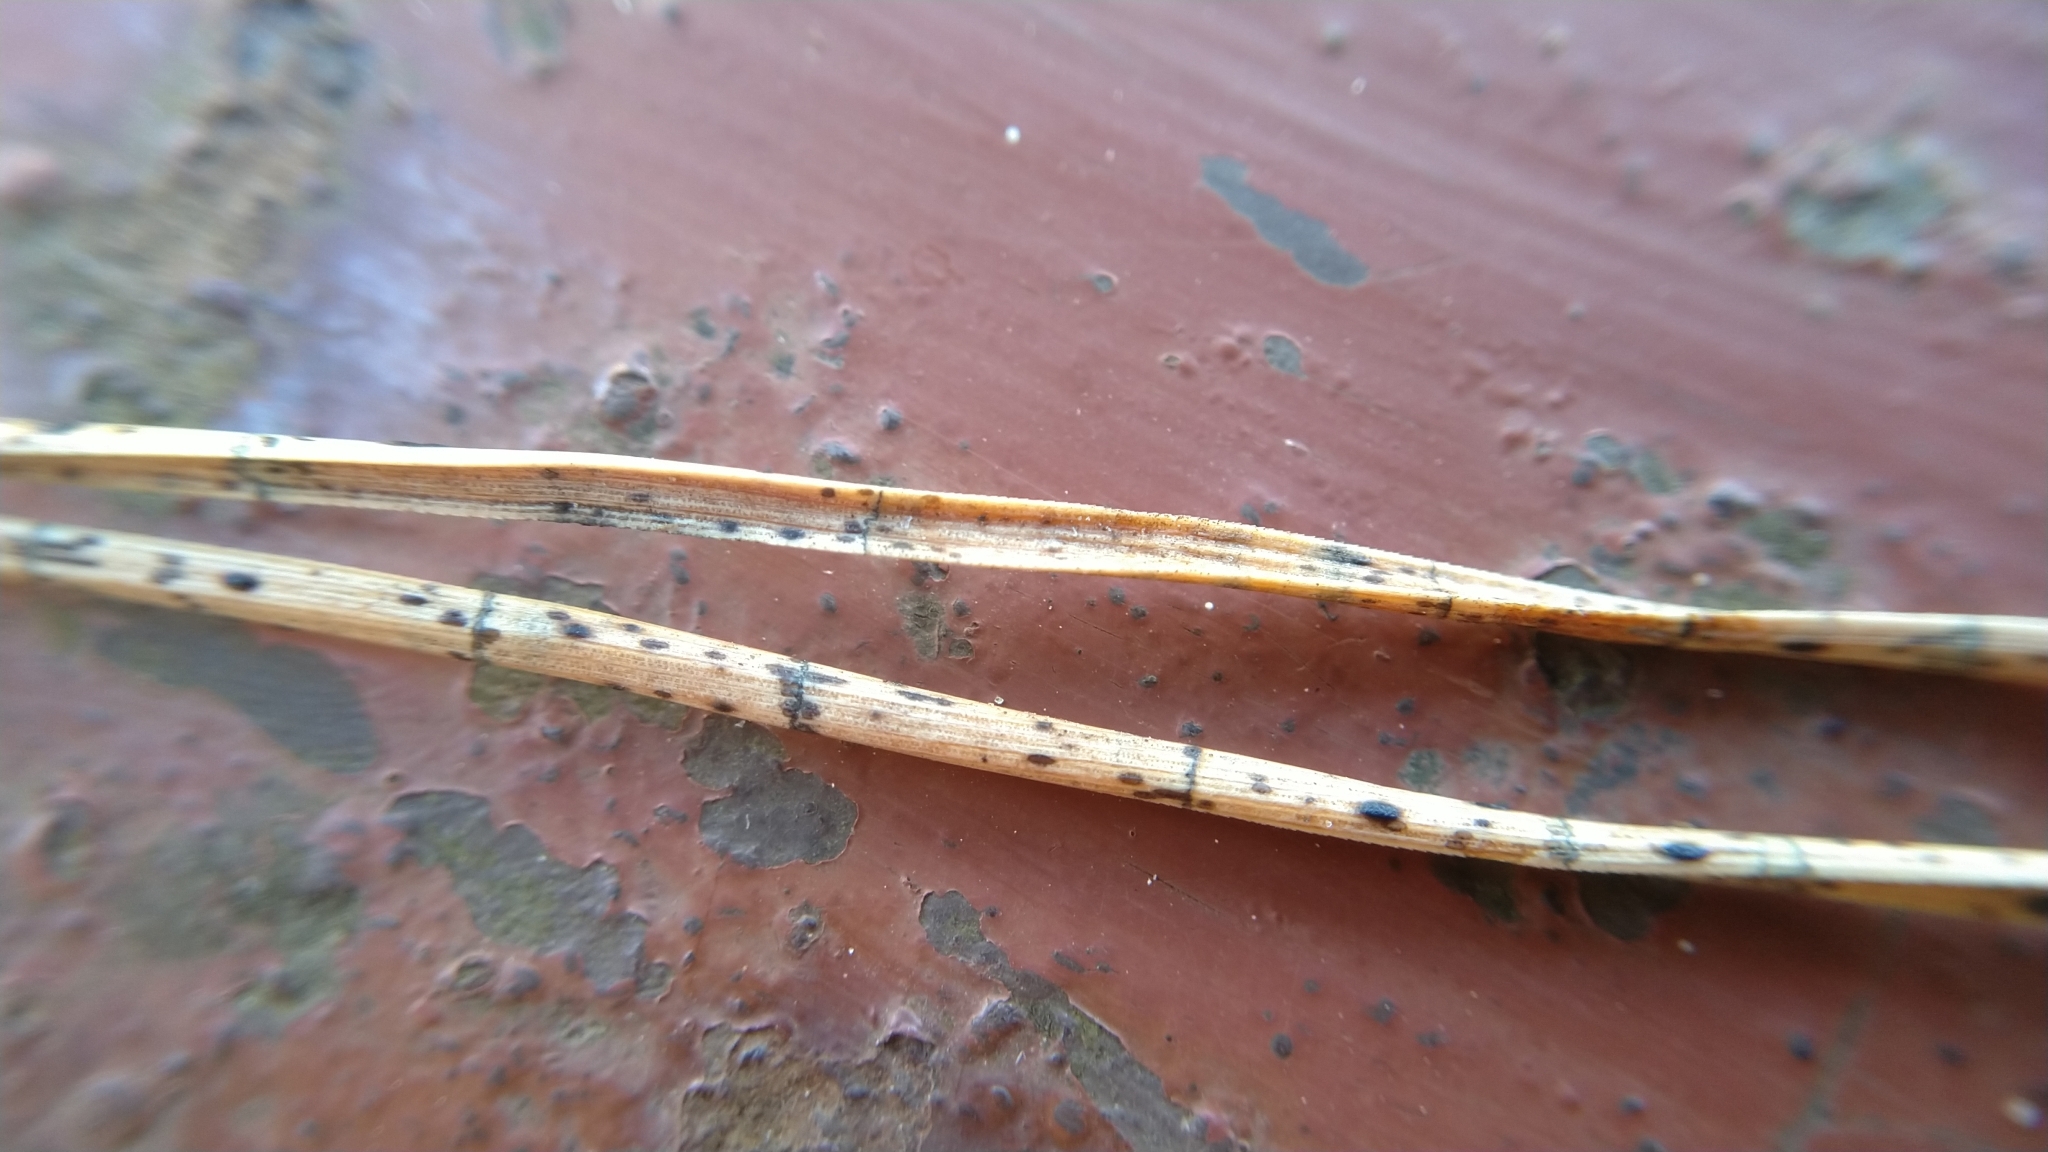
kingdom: Fungi
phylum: Ascomycota
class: Leotiomycetes
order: Rhytismatales
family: Rhytismataceae
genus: Lophodermium
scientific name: Lophodermium pinastri
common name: Pine needle split
